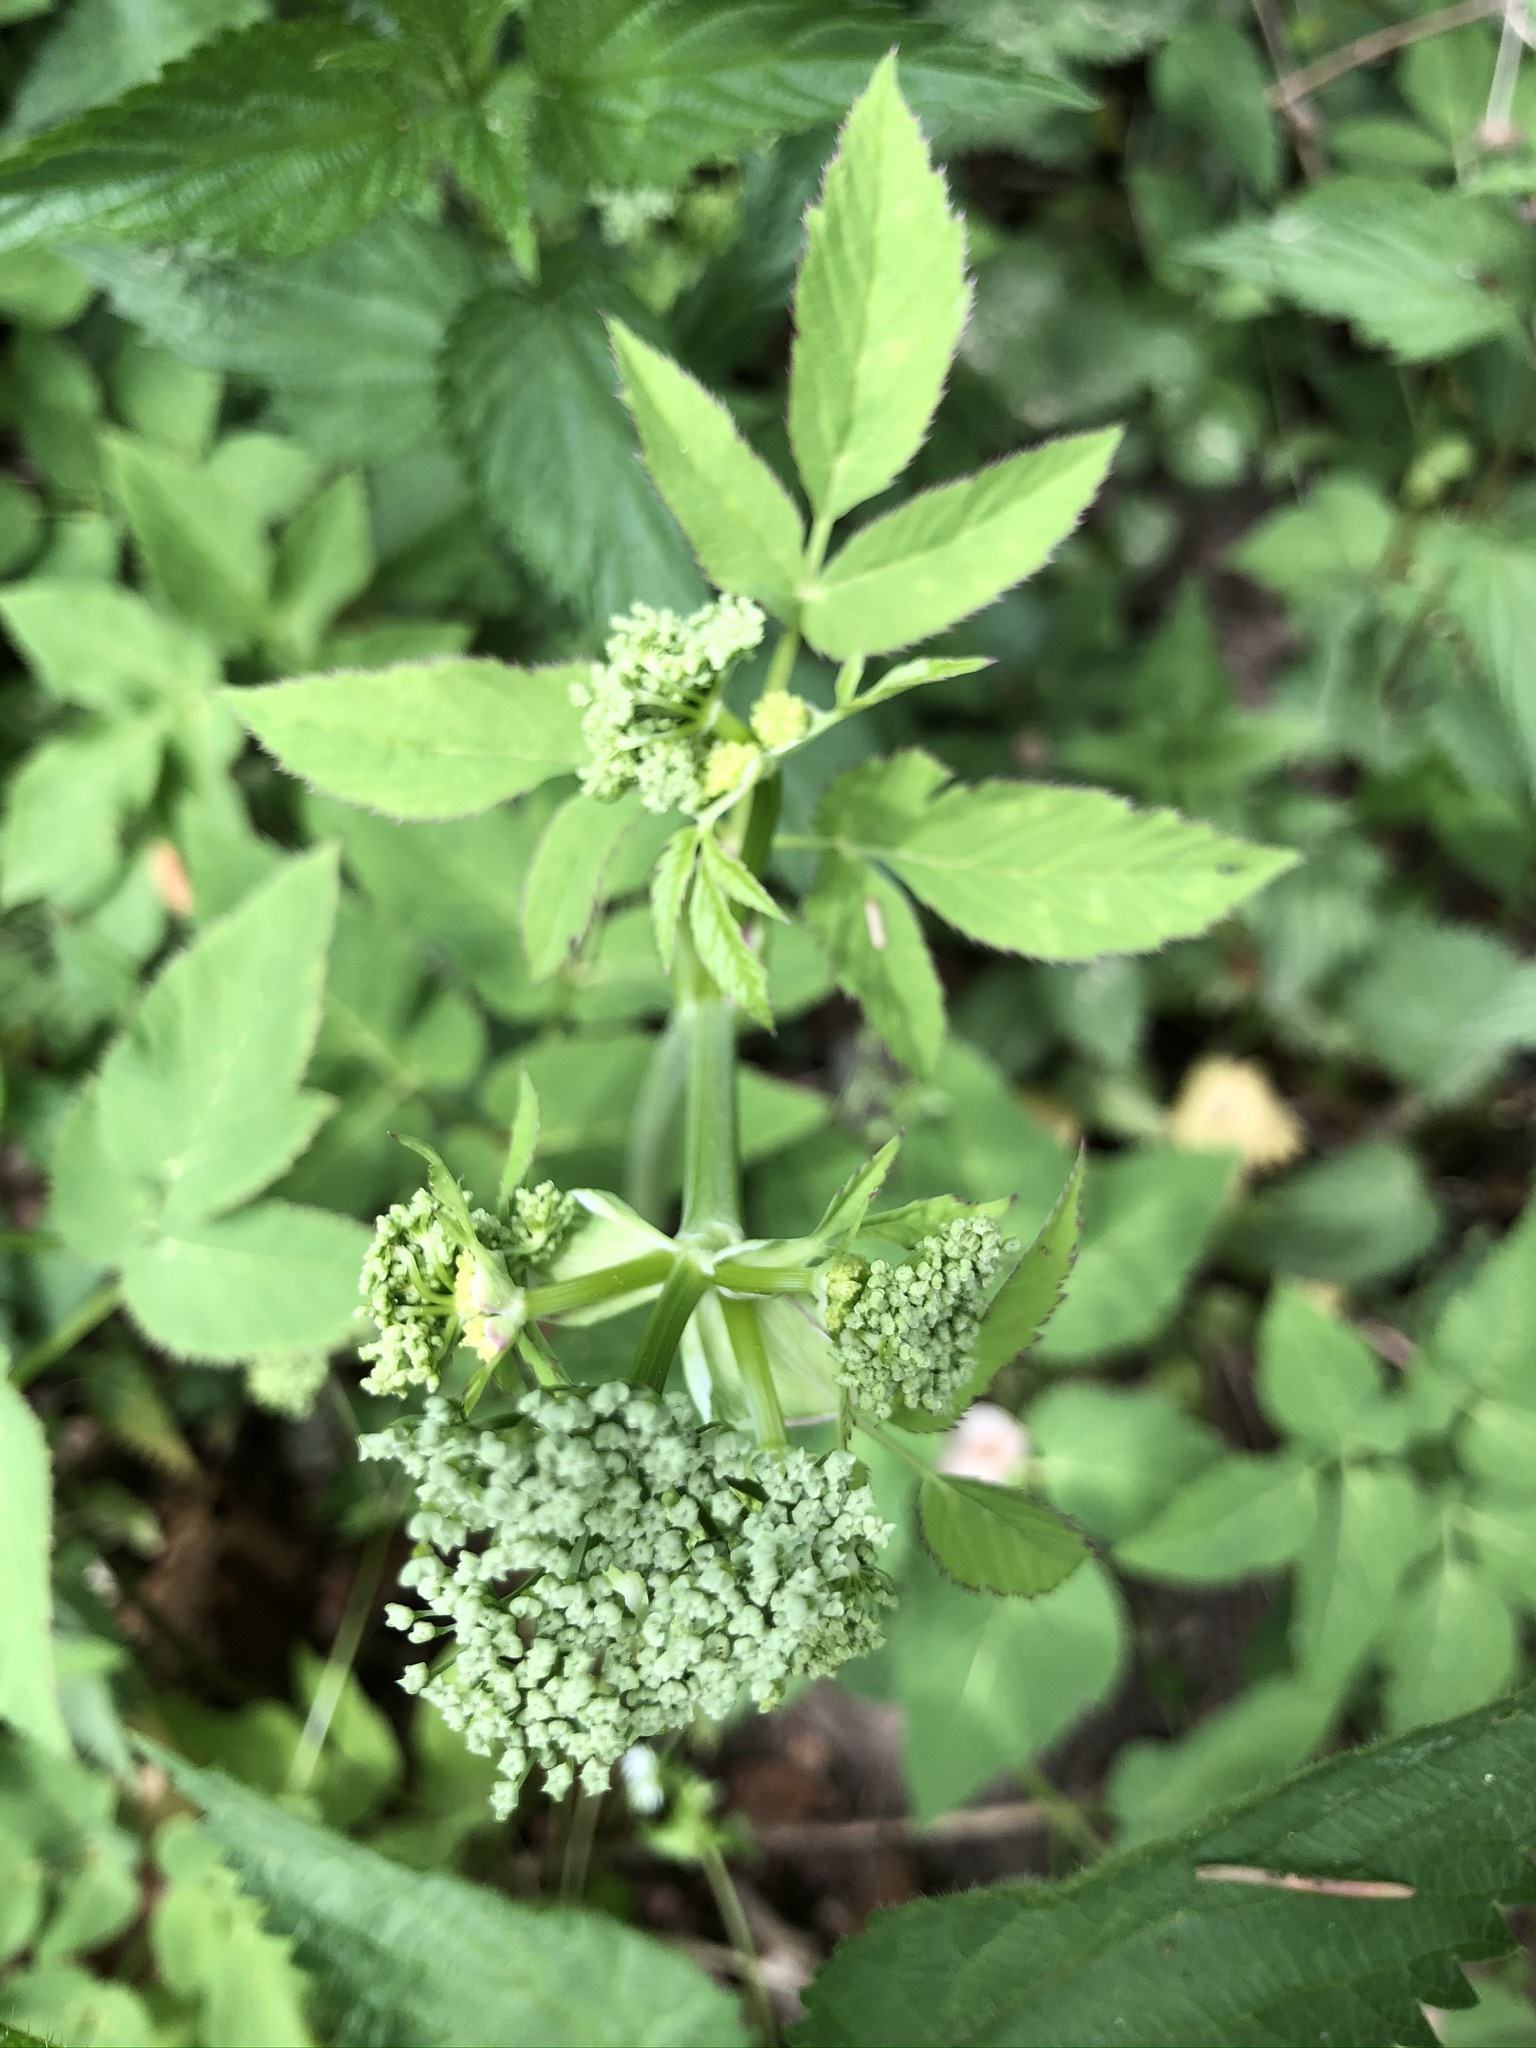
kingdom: Plantae
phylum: Tracheophyta
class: Magnoliopsida
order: Apiales
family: Apiaceae
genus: Aegopodium
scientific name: Aegopodium podagraria
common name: Ground-elder
